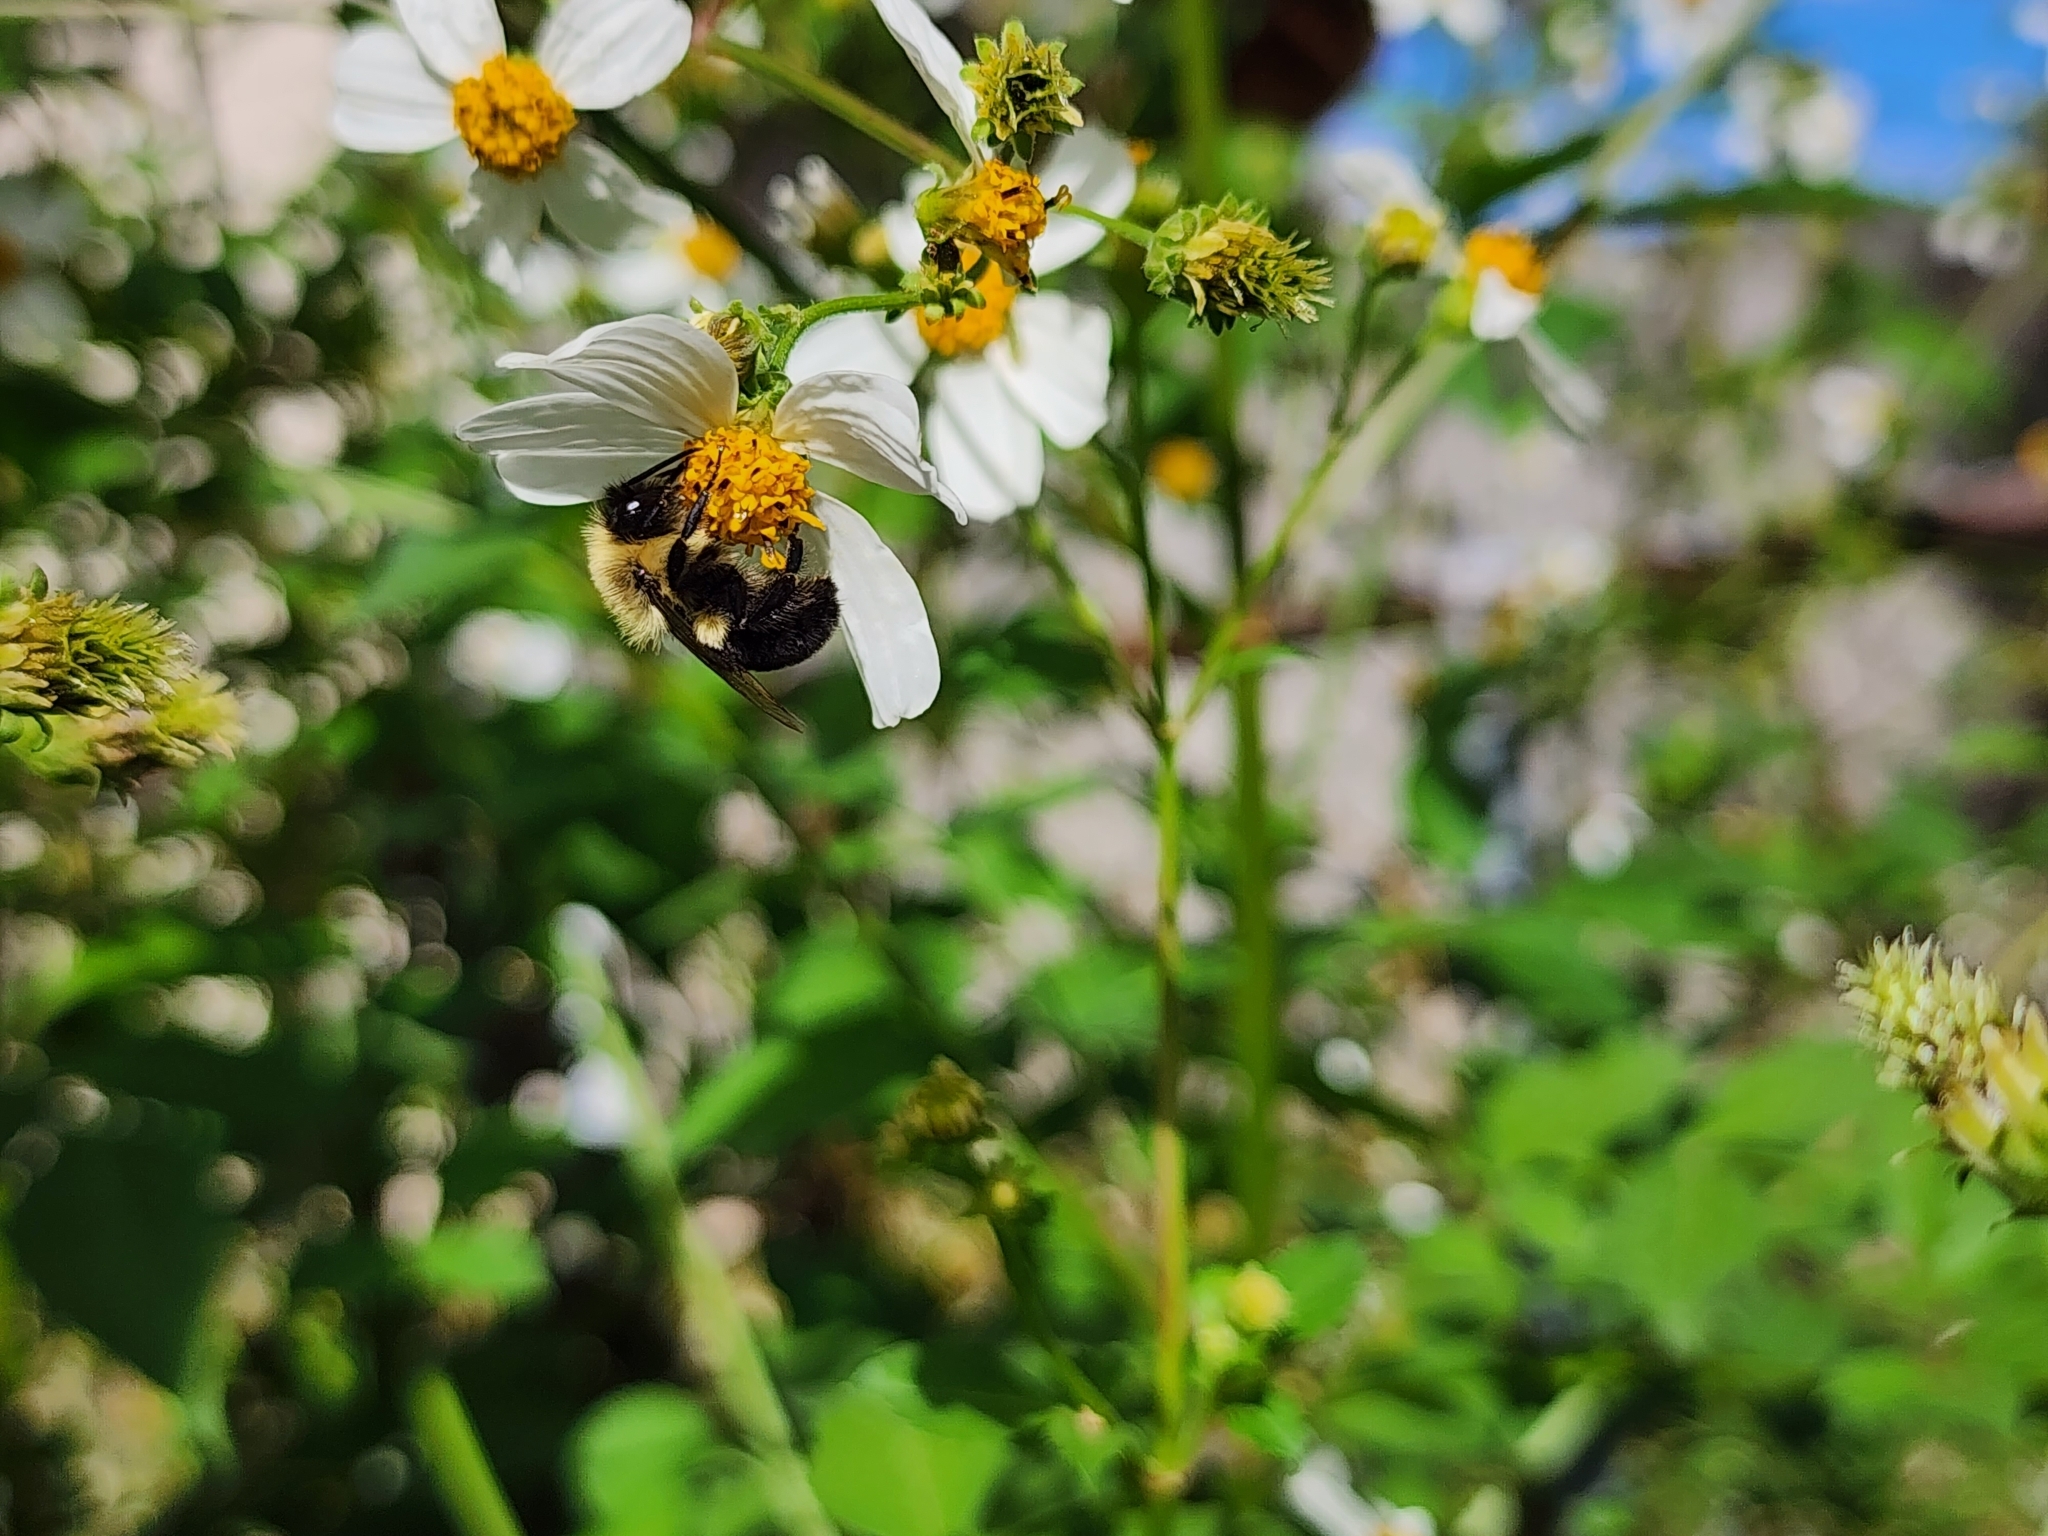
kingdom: Animalia
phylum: Arthropoda
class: Insecta
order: Hymenoptera
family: Apidae
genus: Bombus
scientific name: Bombus impatiens
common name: Common eastern bumble bee
